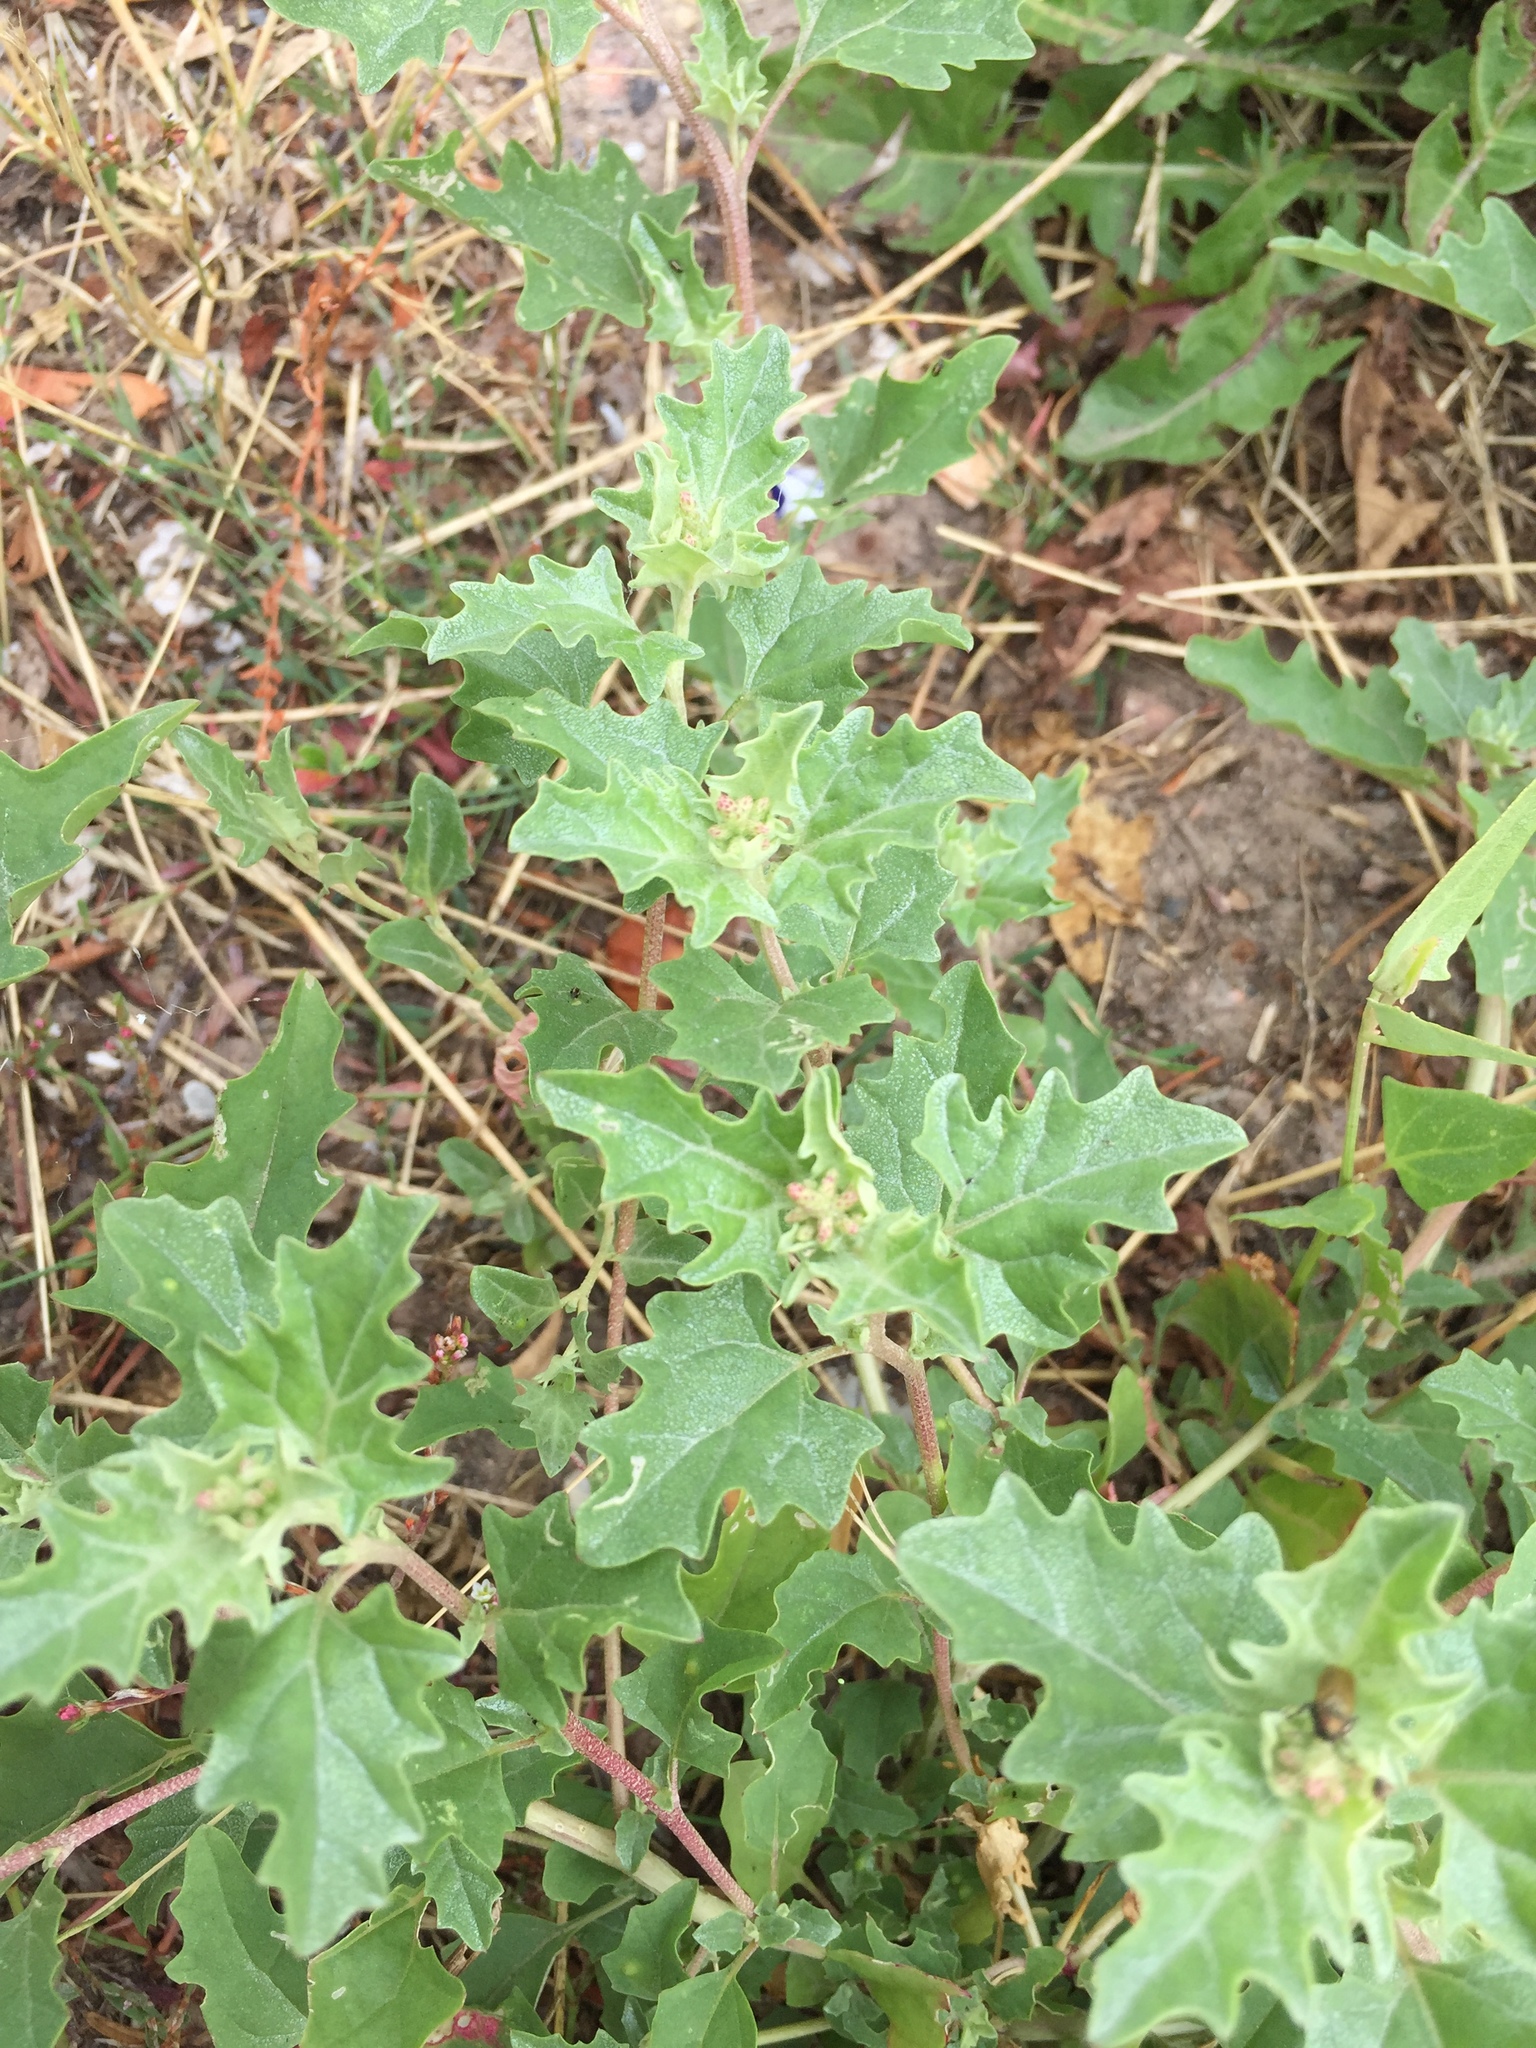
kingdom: Plantae
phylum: Tracheophyta
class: Magnoliopsida
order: Caryophyllales
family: Amaranthaceae
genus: Atriplex
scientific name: Atriplex tatarica
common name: Tatarian orache
